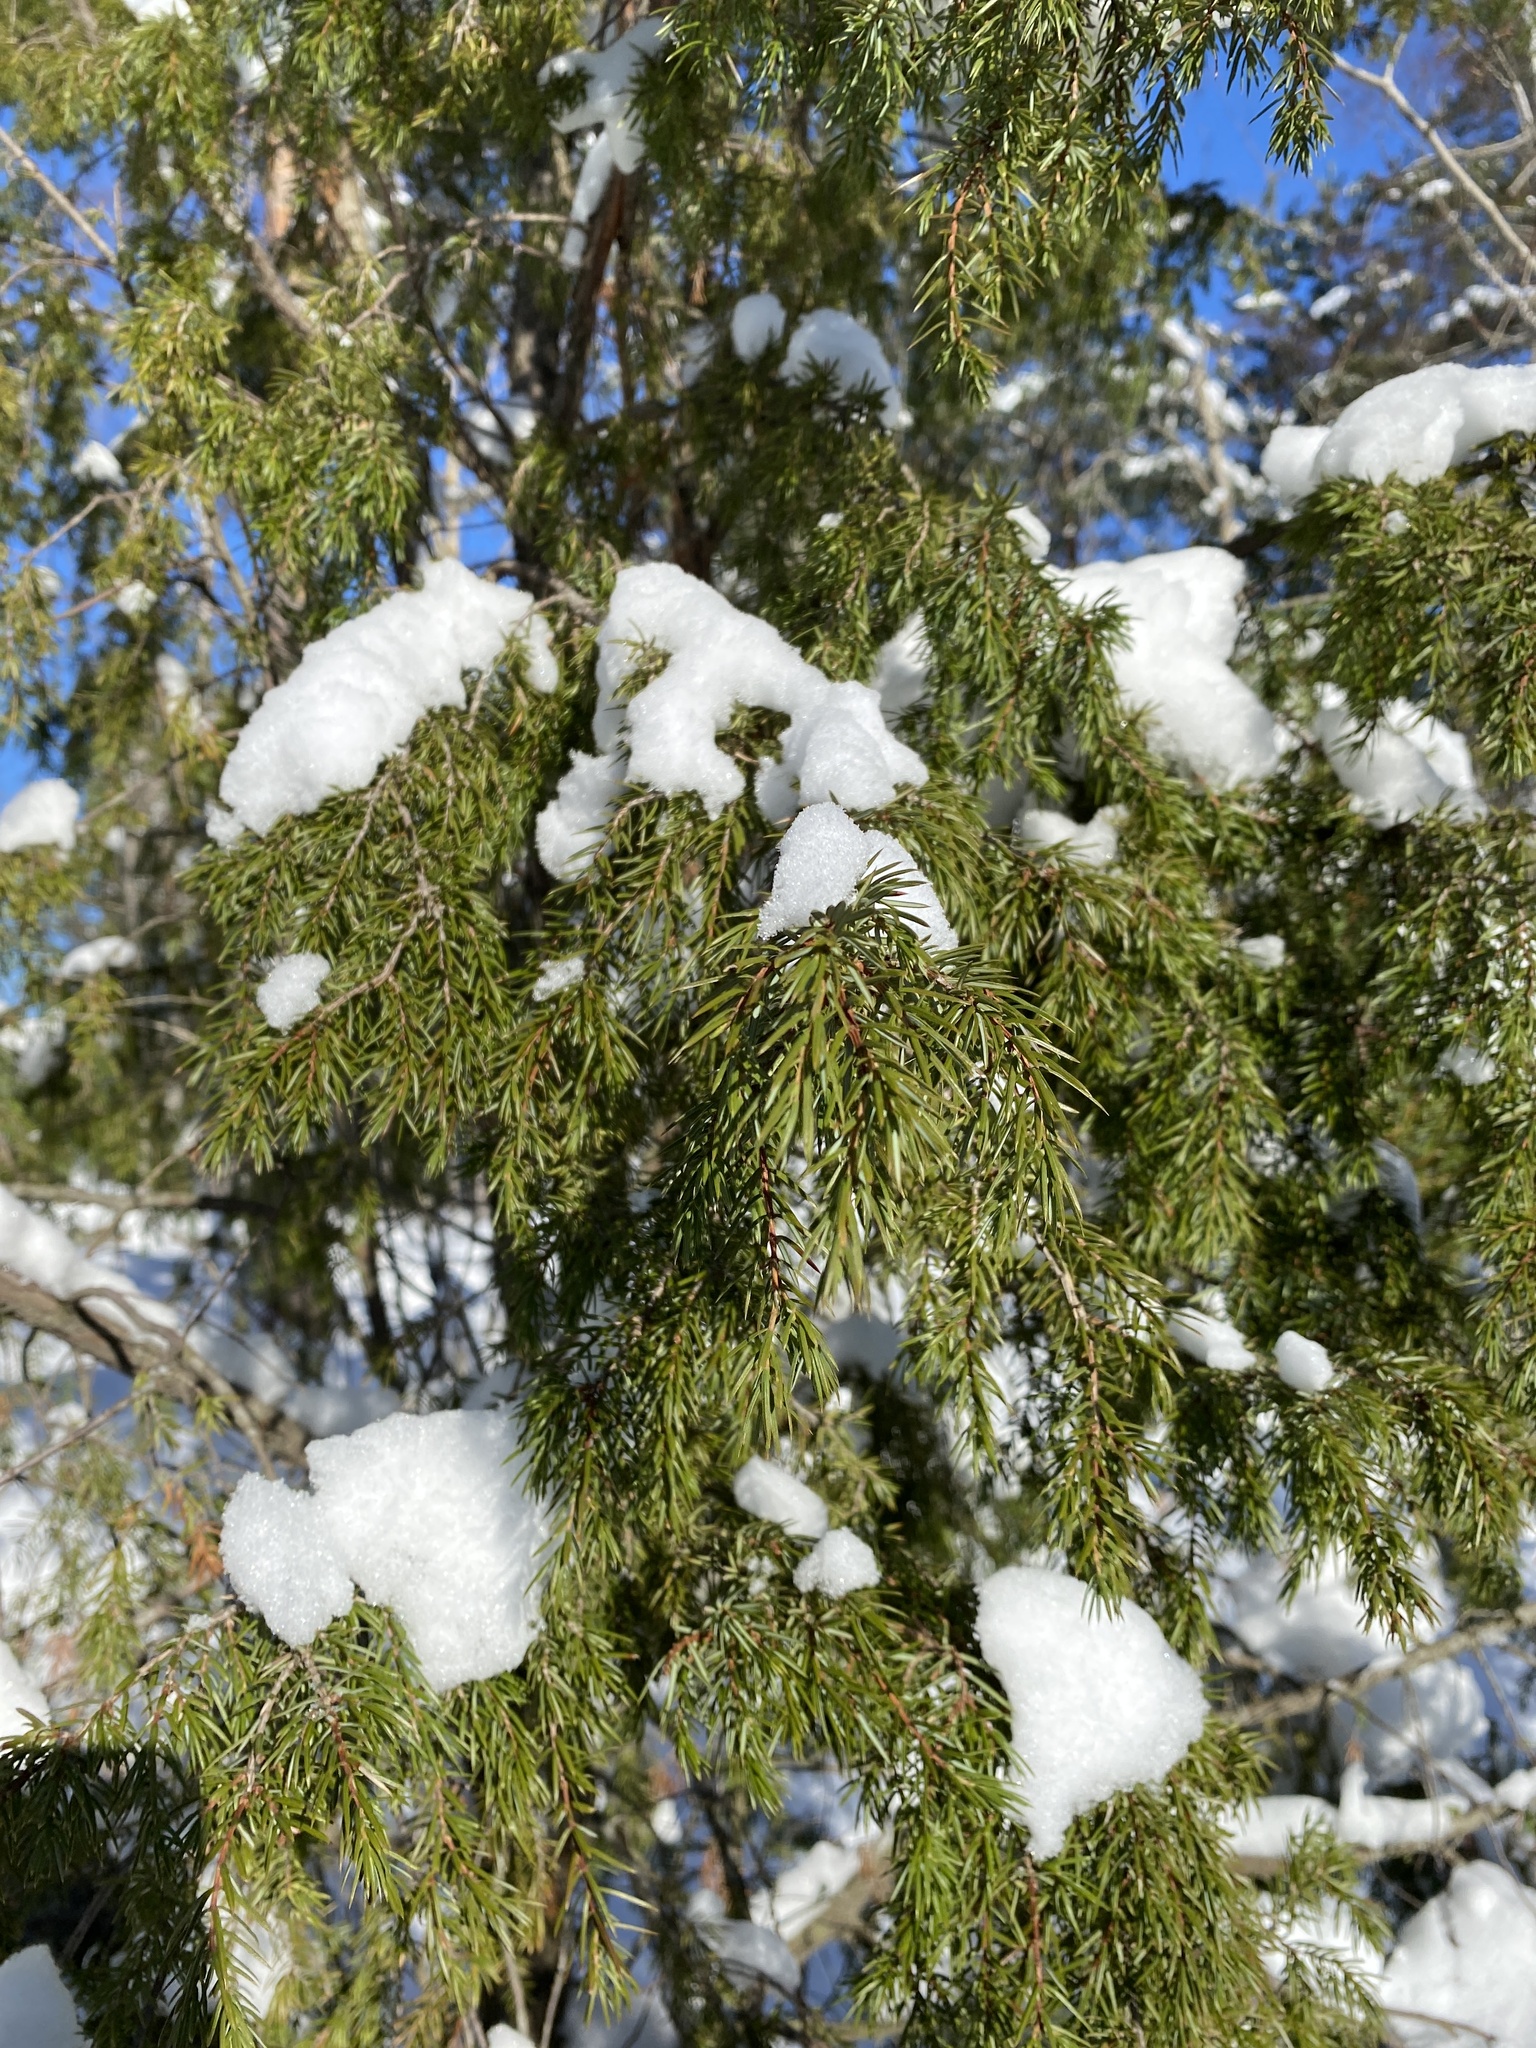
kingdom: Plantae
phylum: Tracheophyta
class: Pinopsida
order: Pinales
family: Cupressaceae
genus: Juniperus
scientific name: Juniperus communis
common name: Common juniper
